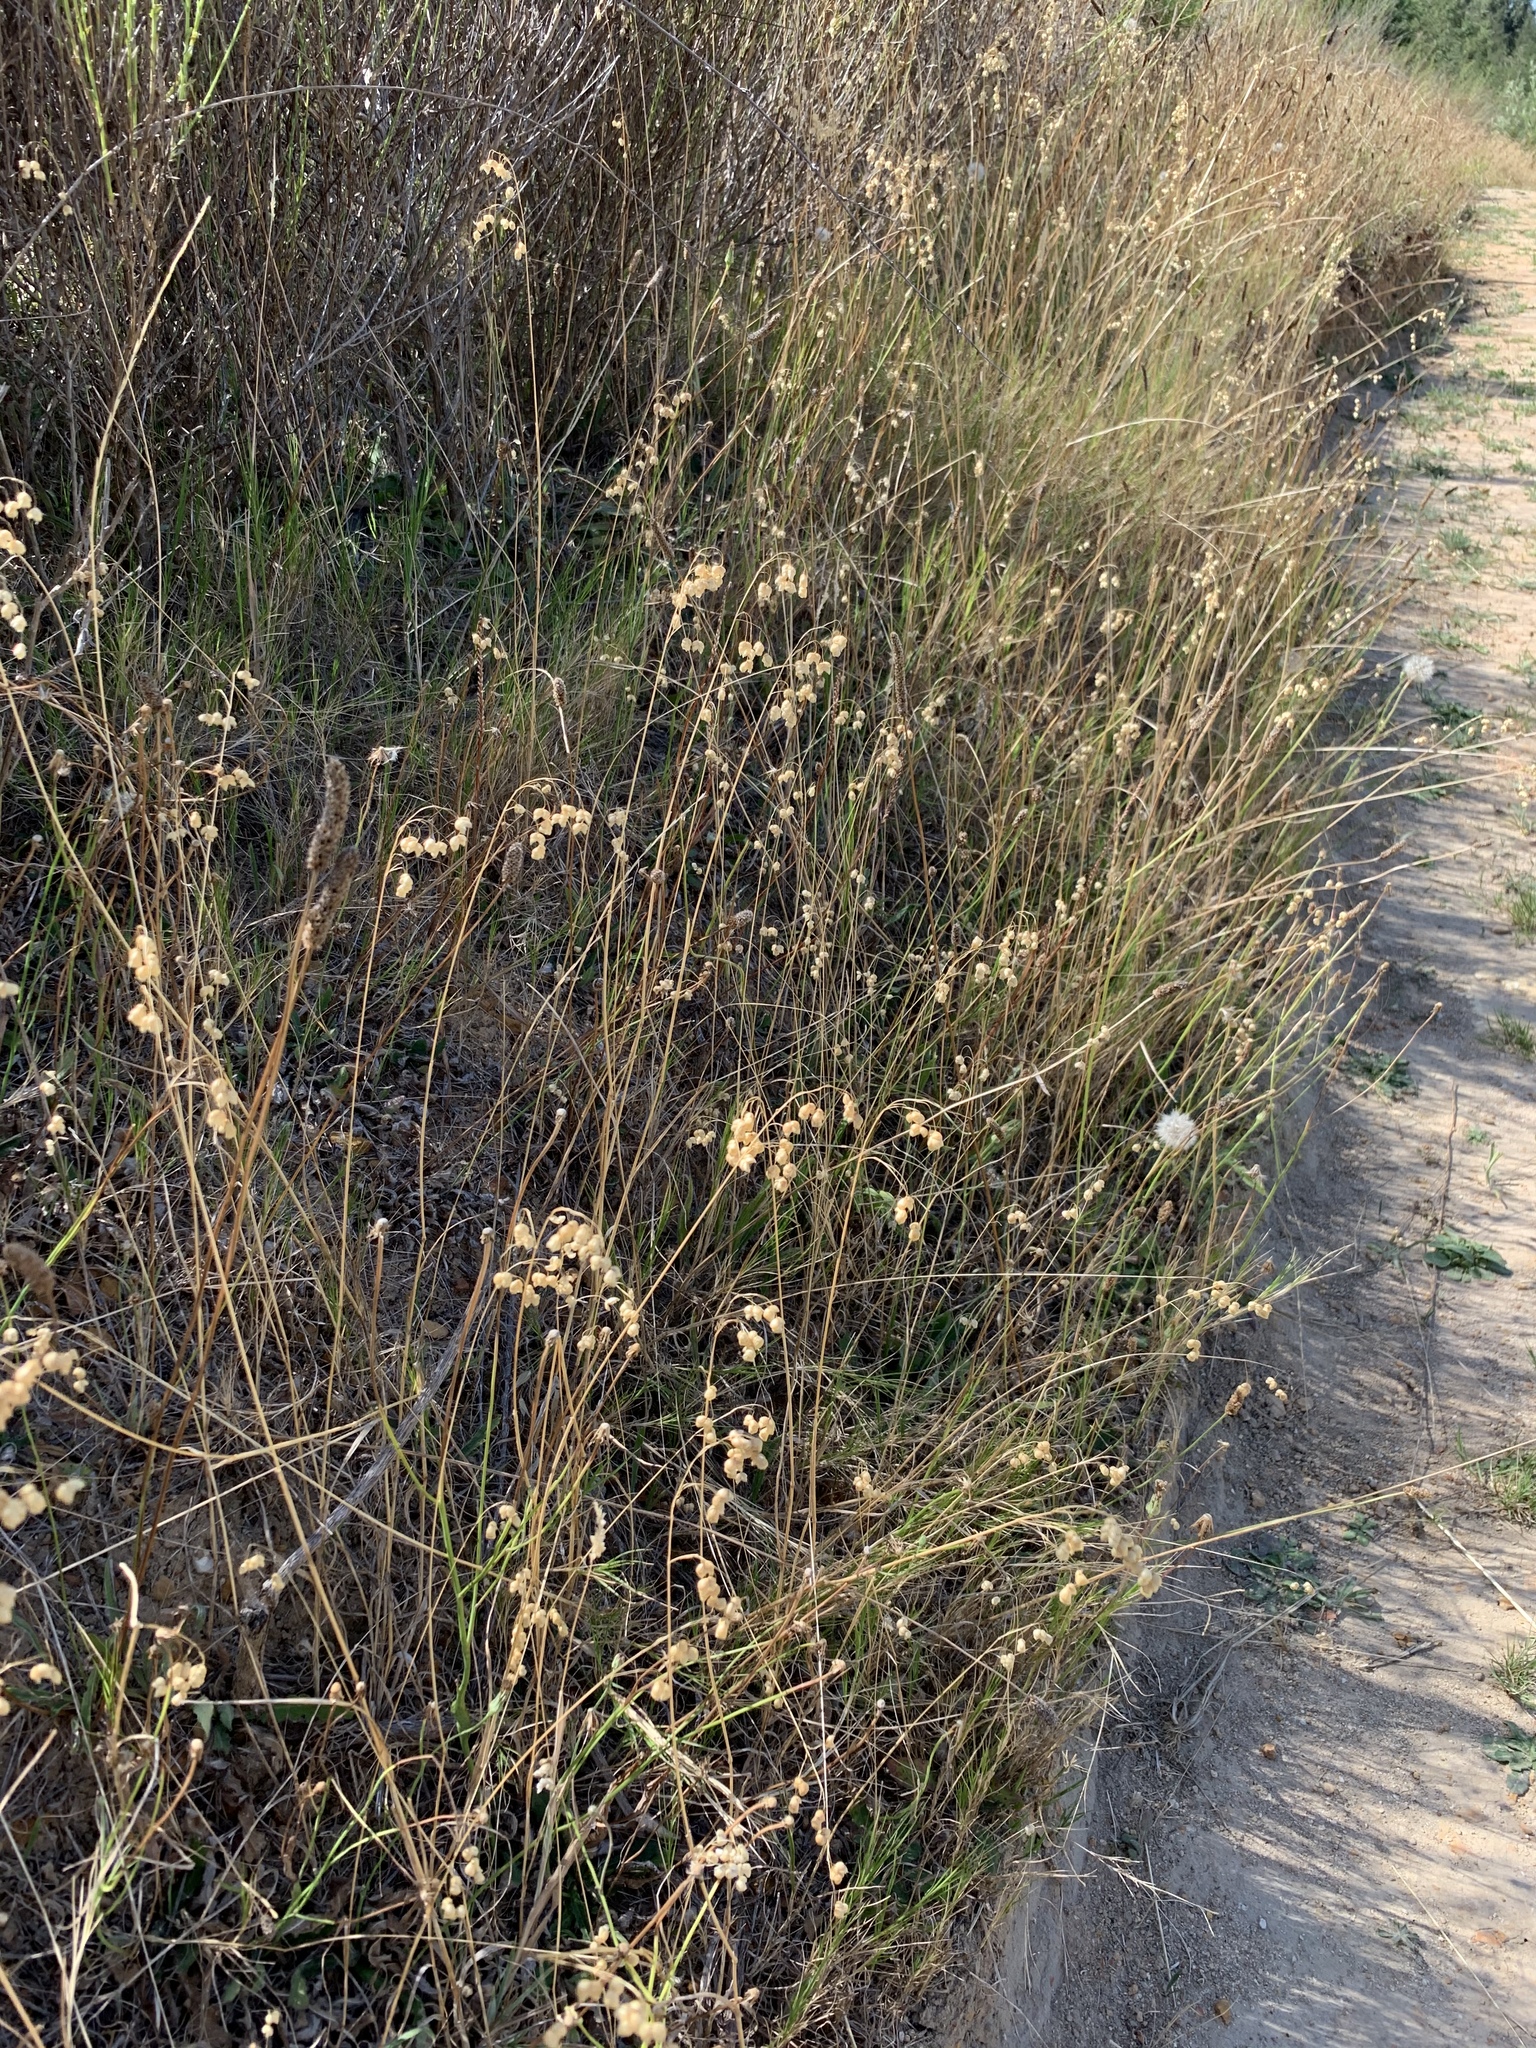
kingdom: Plantae
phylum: Tracheophyta
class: Liliopsida
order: Poales
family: Poaceae
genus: Briza
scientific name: Briza maxima
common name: Big quakinggrass
